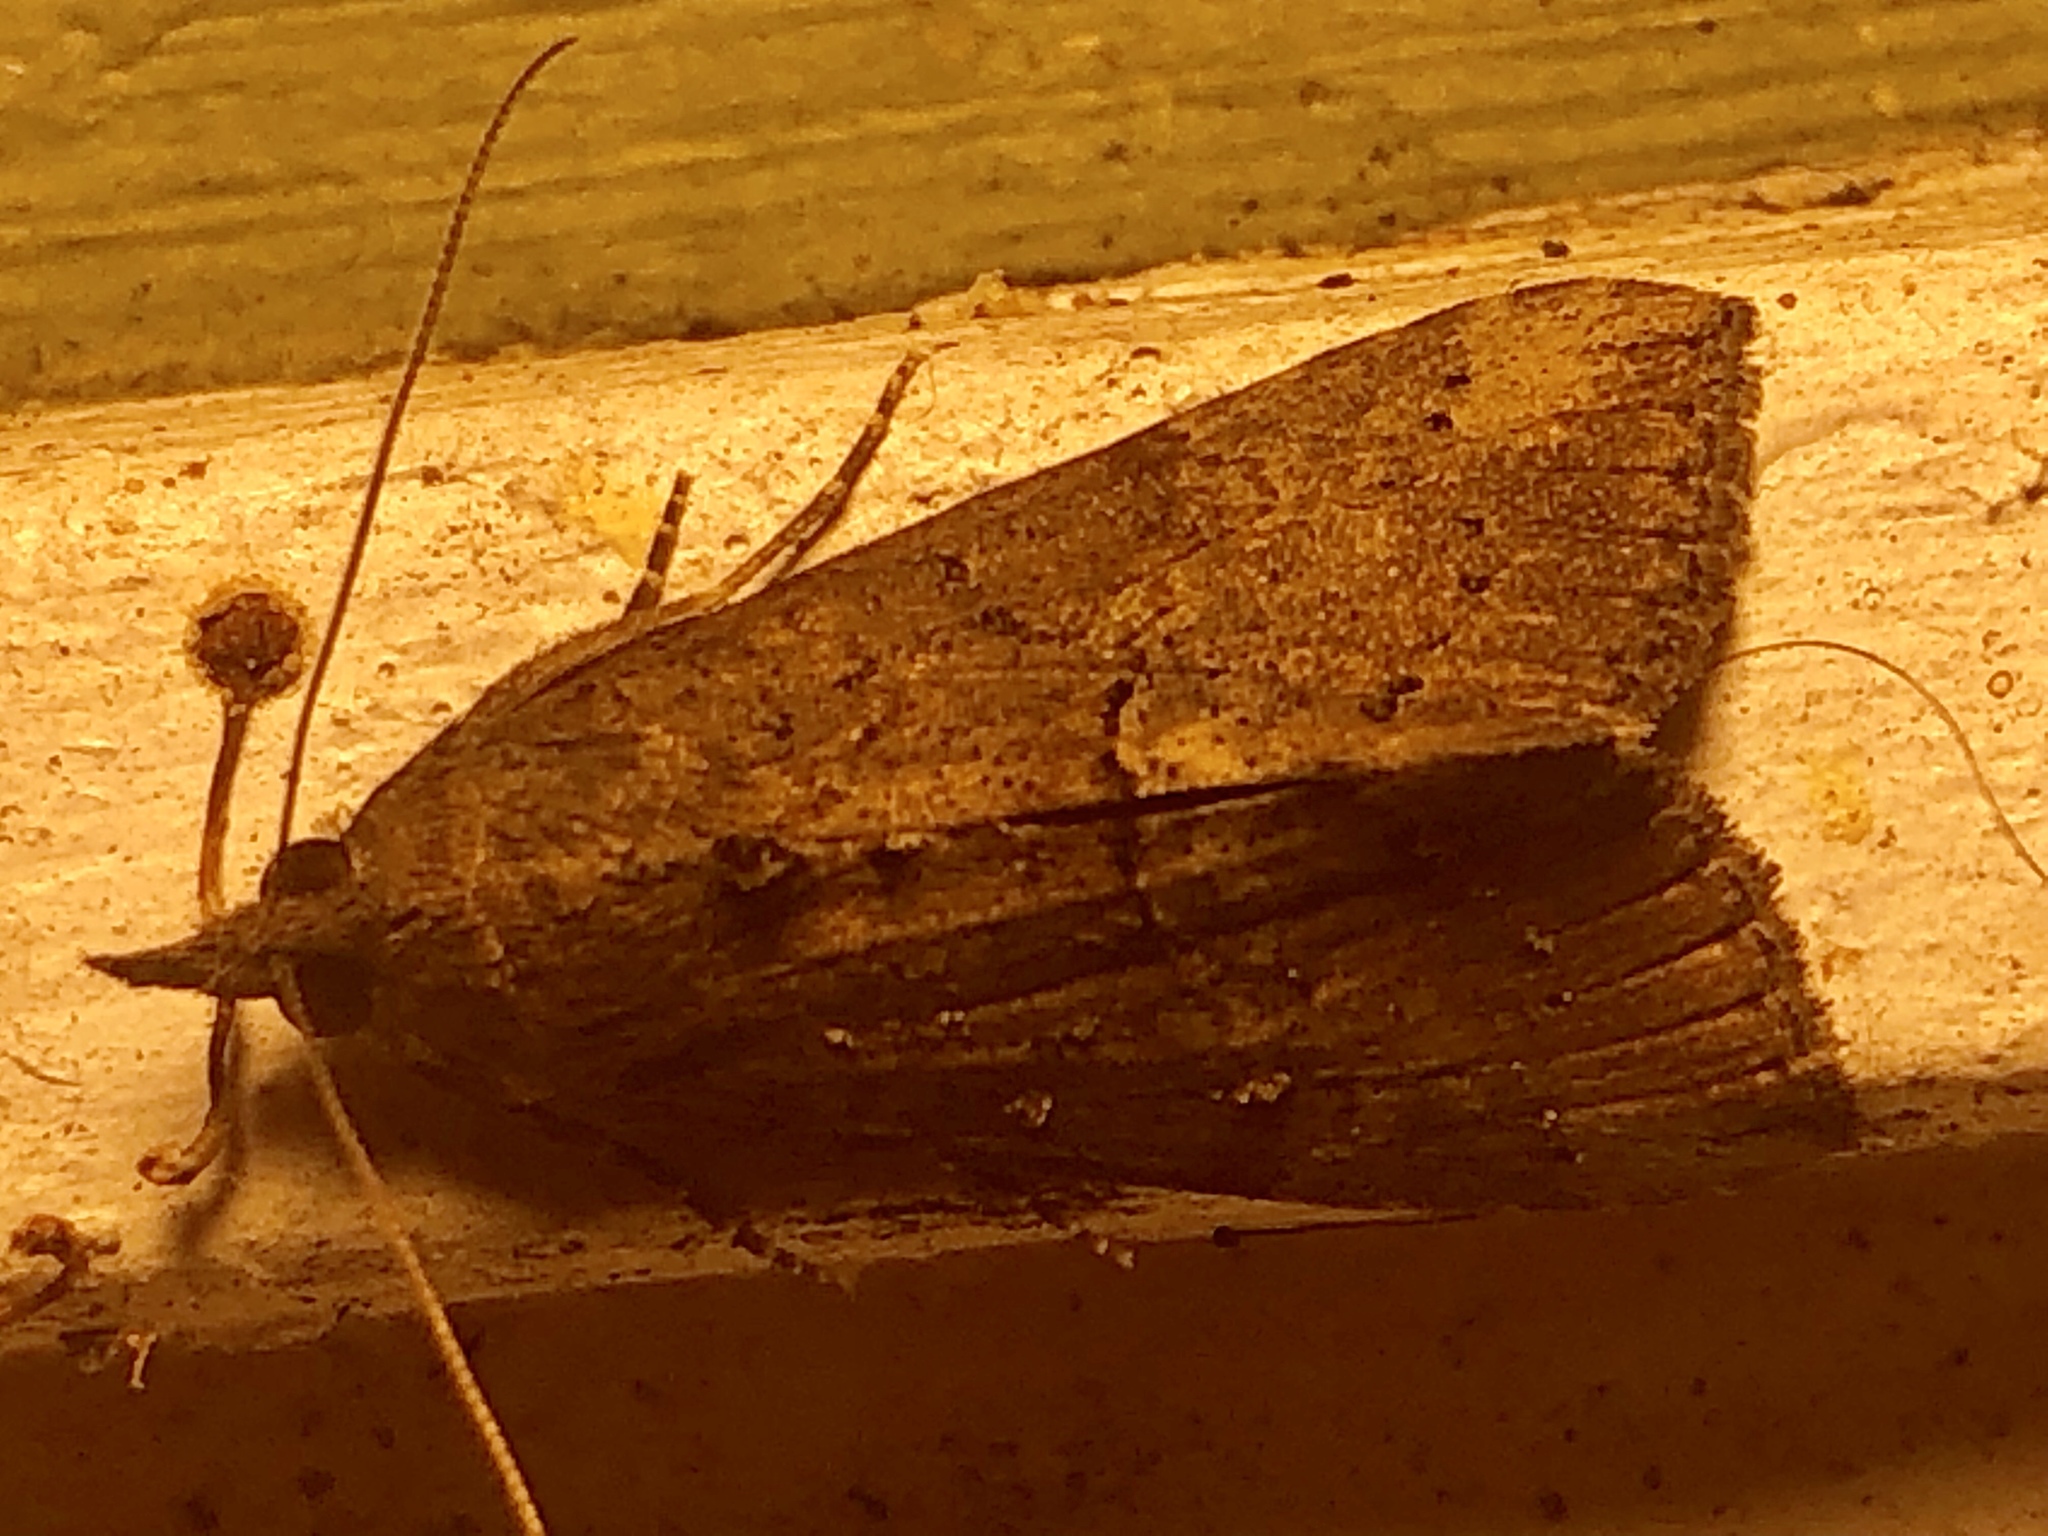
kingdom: Animalia
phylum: Arthropoda
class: Insecta
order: Lepidoptera
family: Erebidae
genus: Hypena
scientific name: Hypena scabra
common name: Green cloverworm
